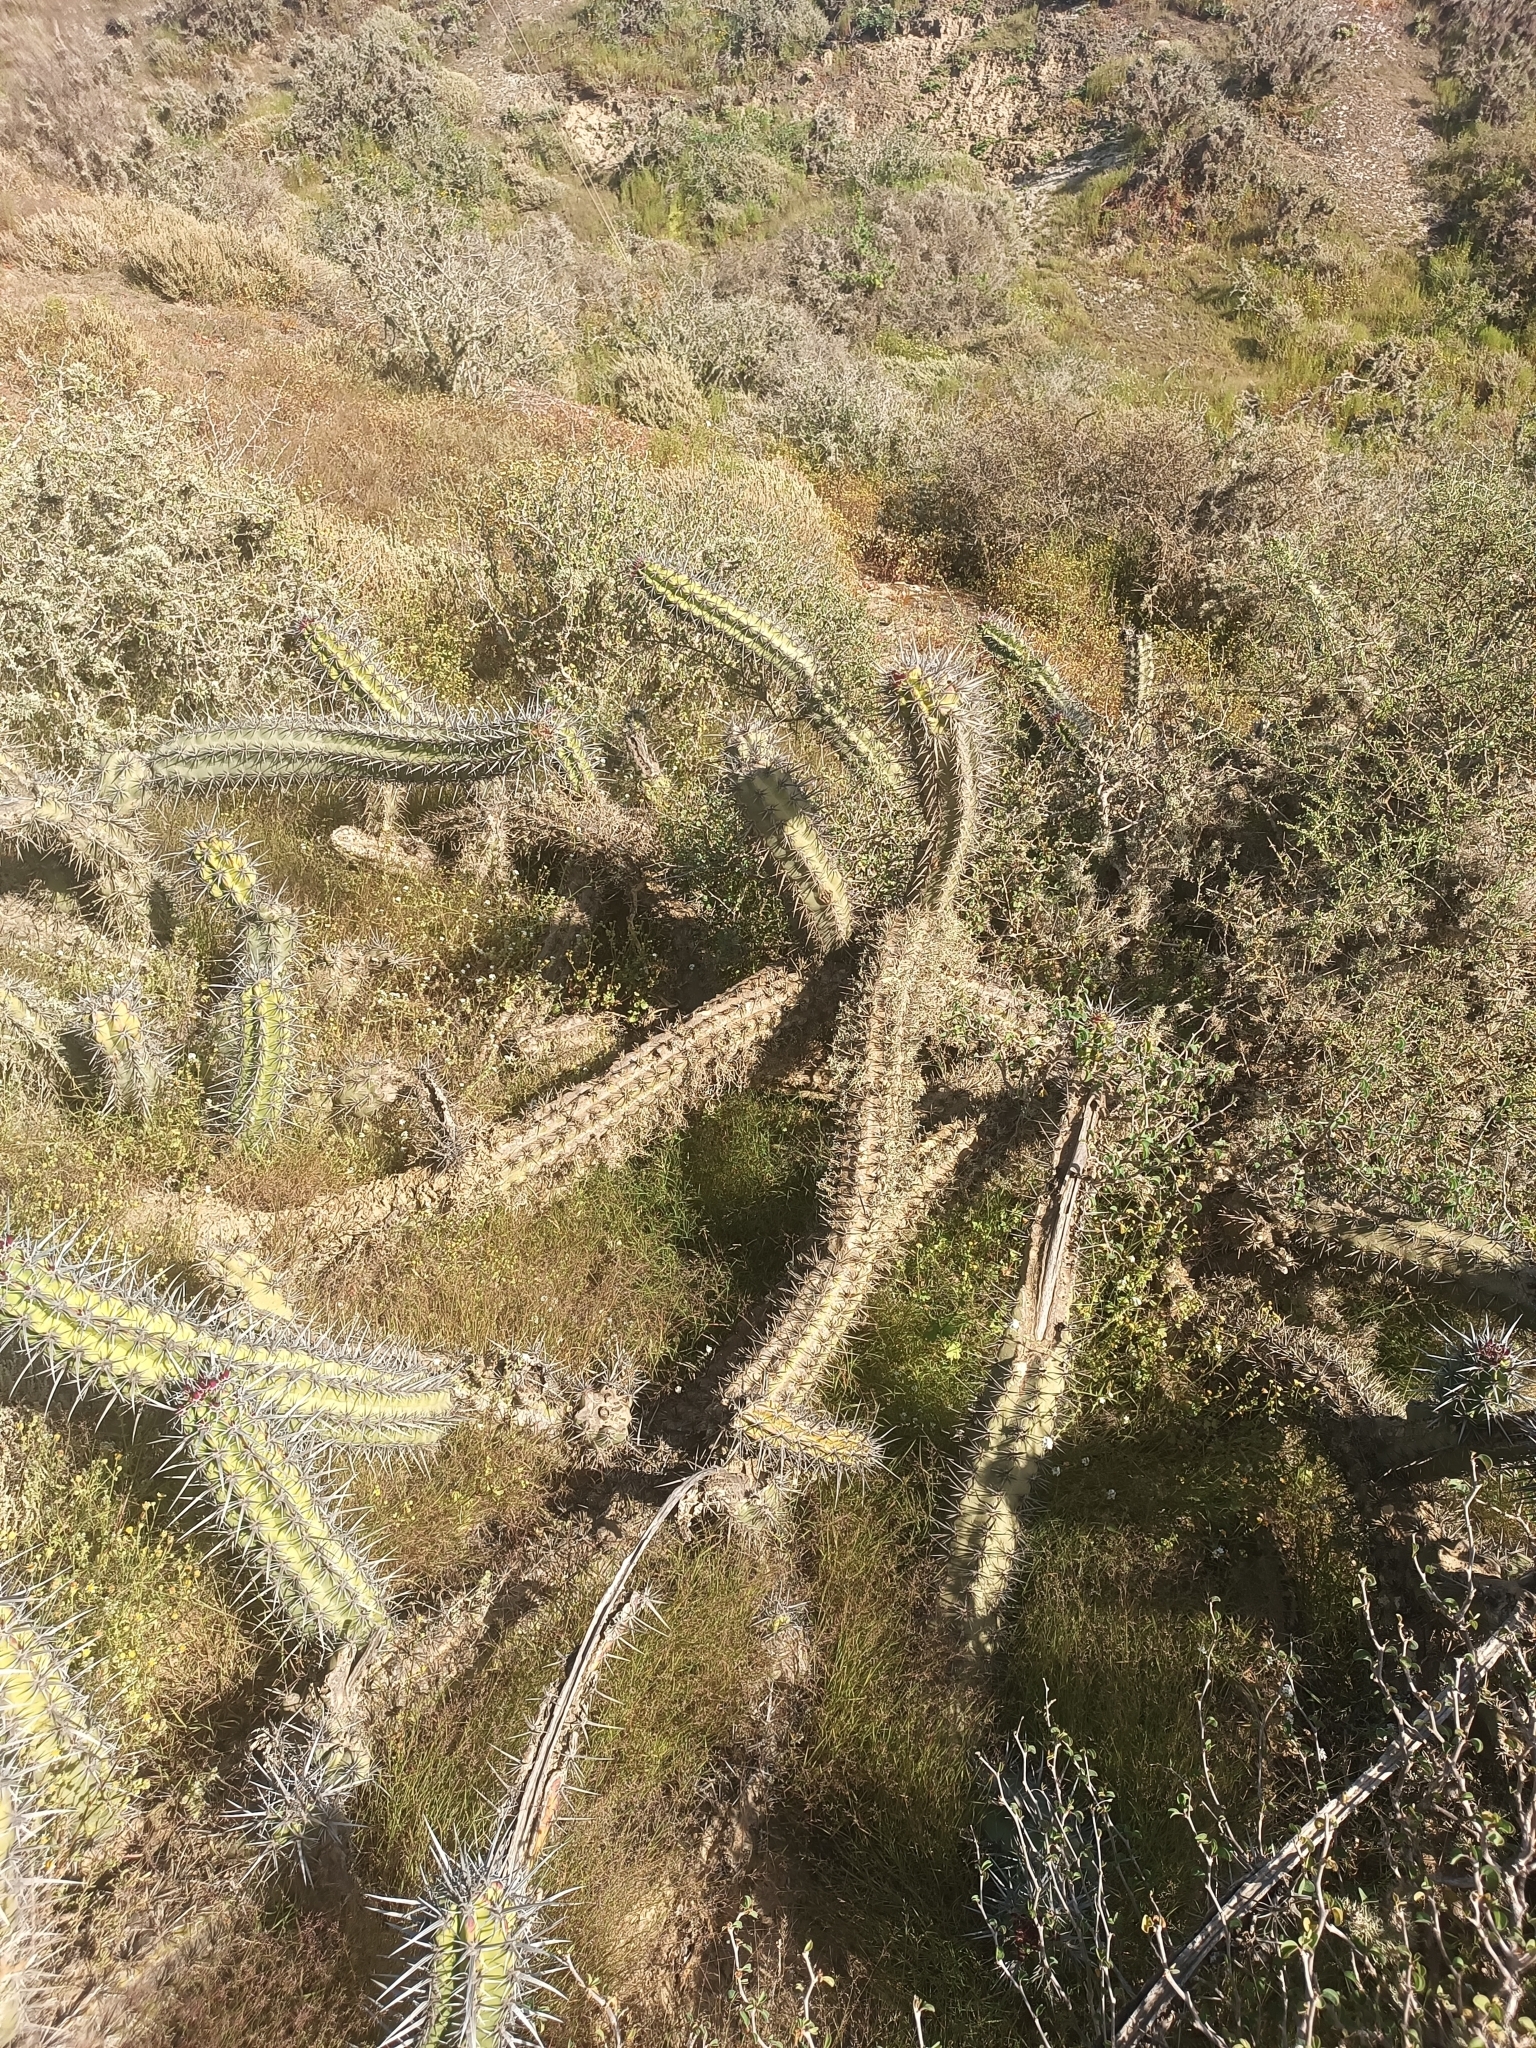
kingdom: Plantae
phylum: Tracheophyta
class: Magnoliopsida
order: Caryophyllales
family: Cactaceae
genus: Stenocereus
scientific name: Stenocereus gummosus
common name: Dagger cactus
